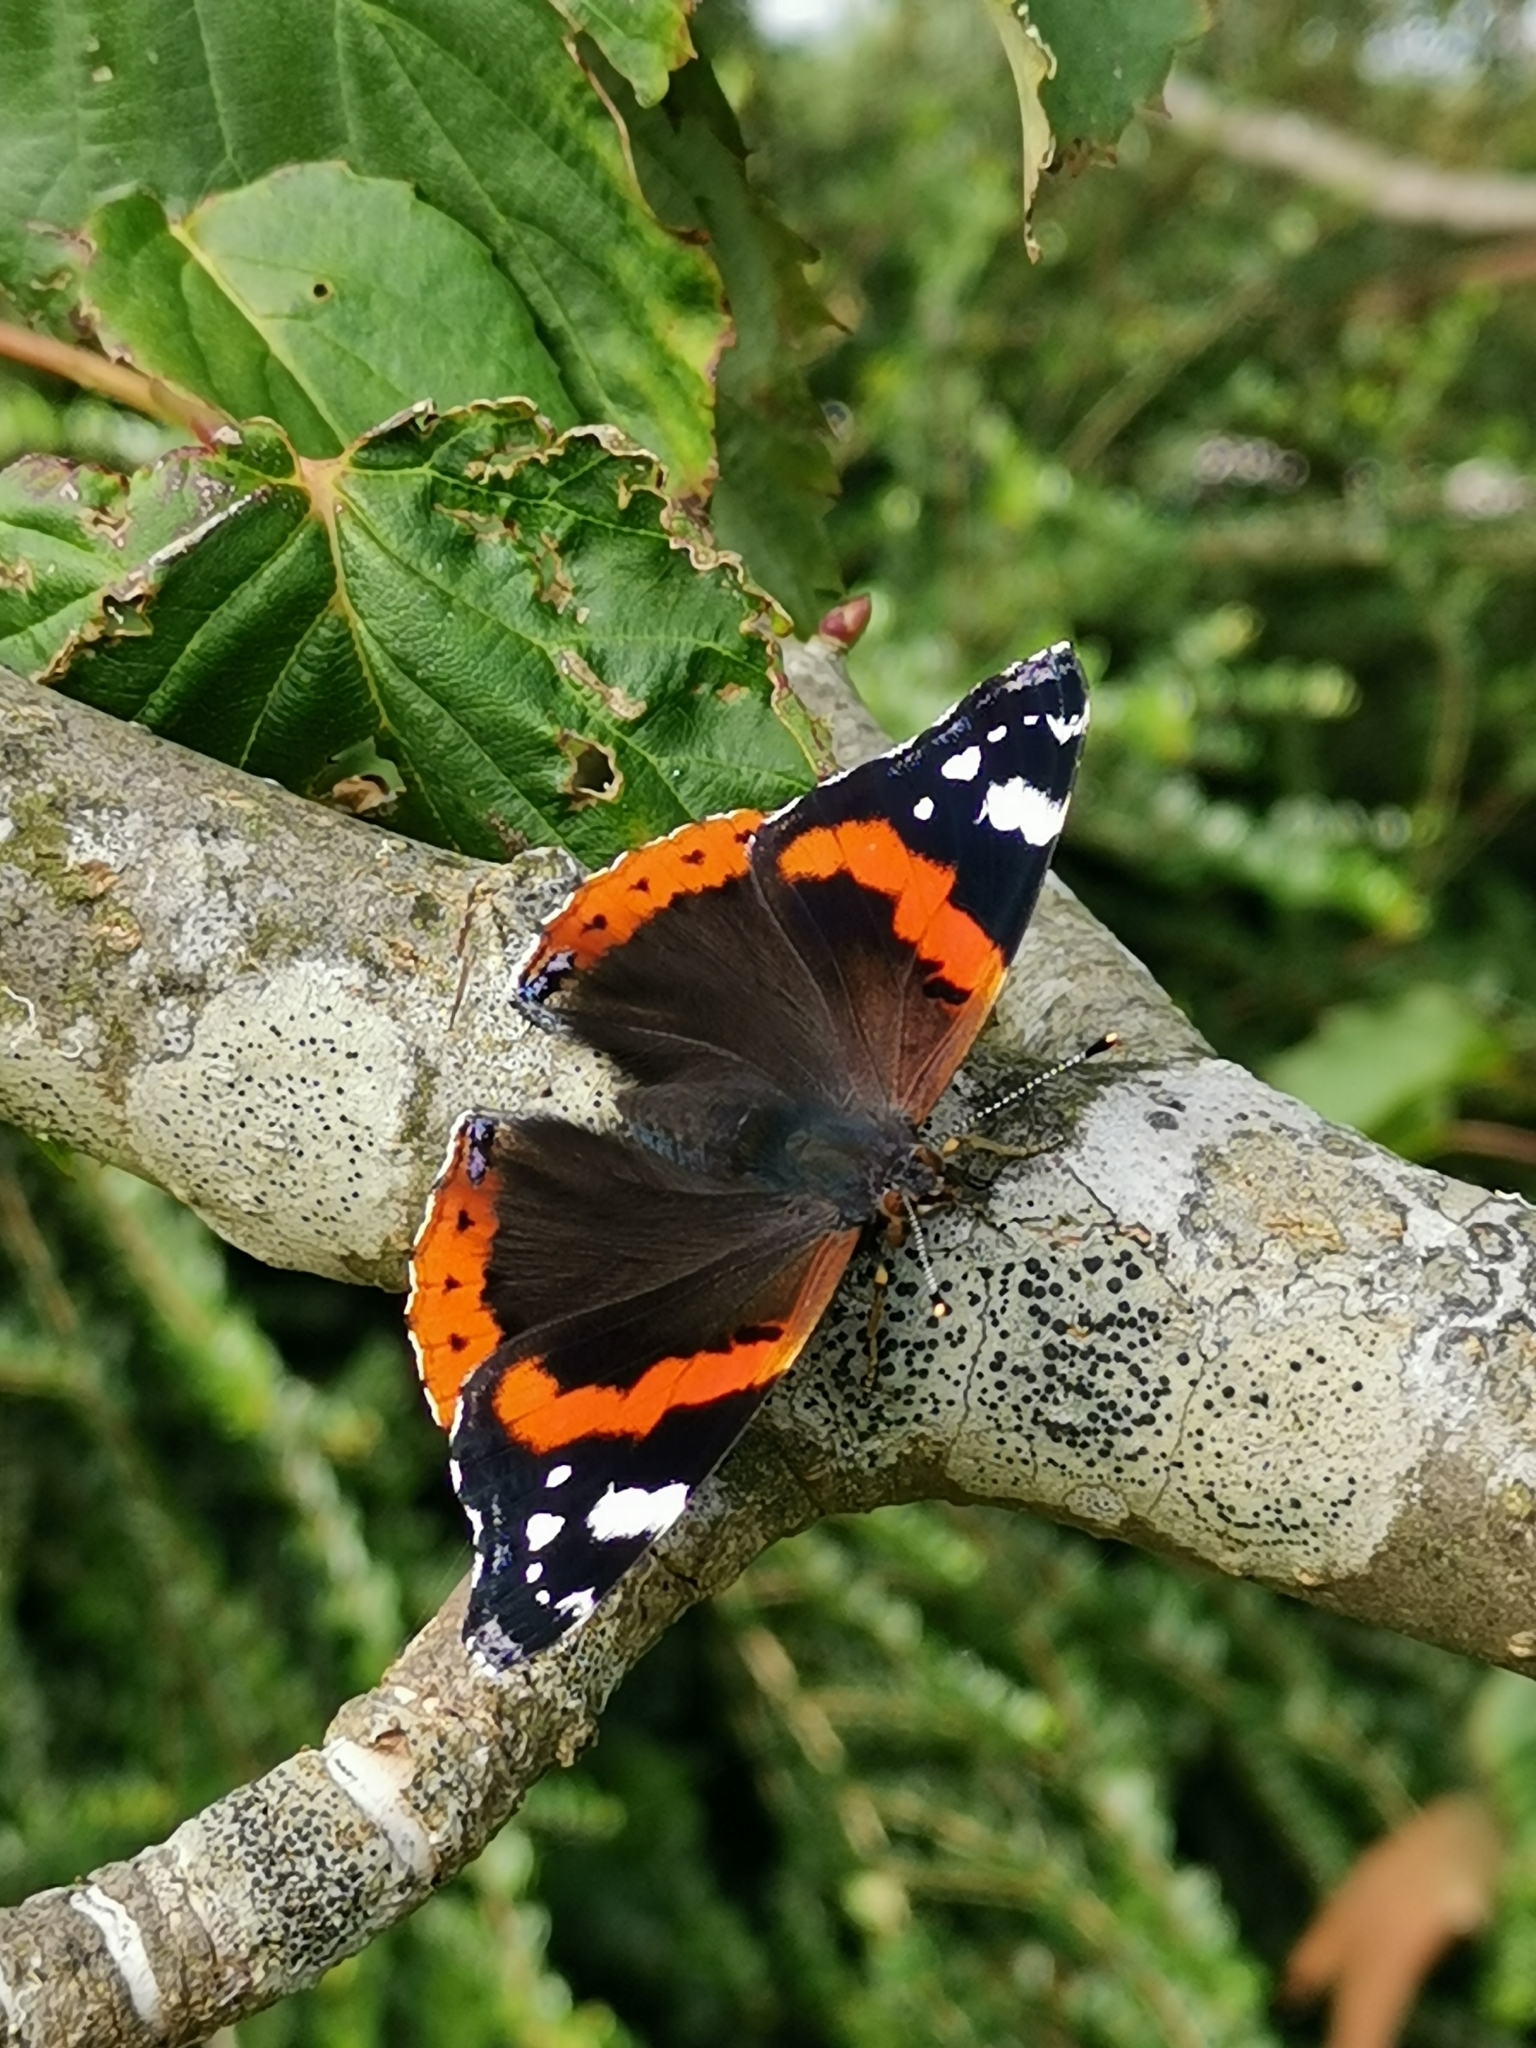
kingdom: Animalia
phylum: Arthropoda
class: Insecta
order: Lepidoptera
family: Nymphalidae
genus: Vanessa
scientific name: Vanessa atalanta
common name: Red admiral
